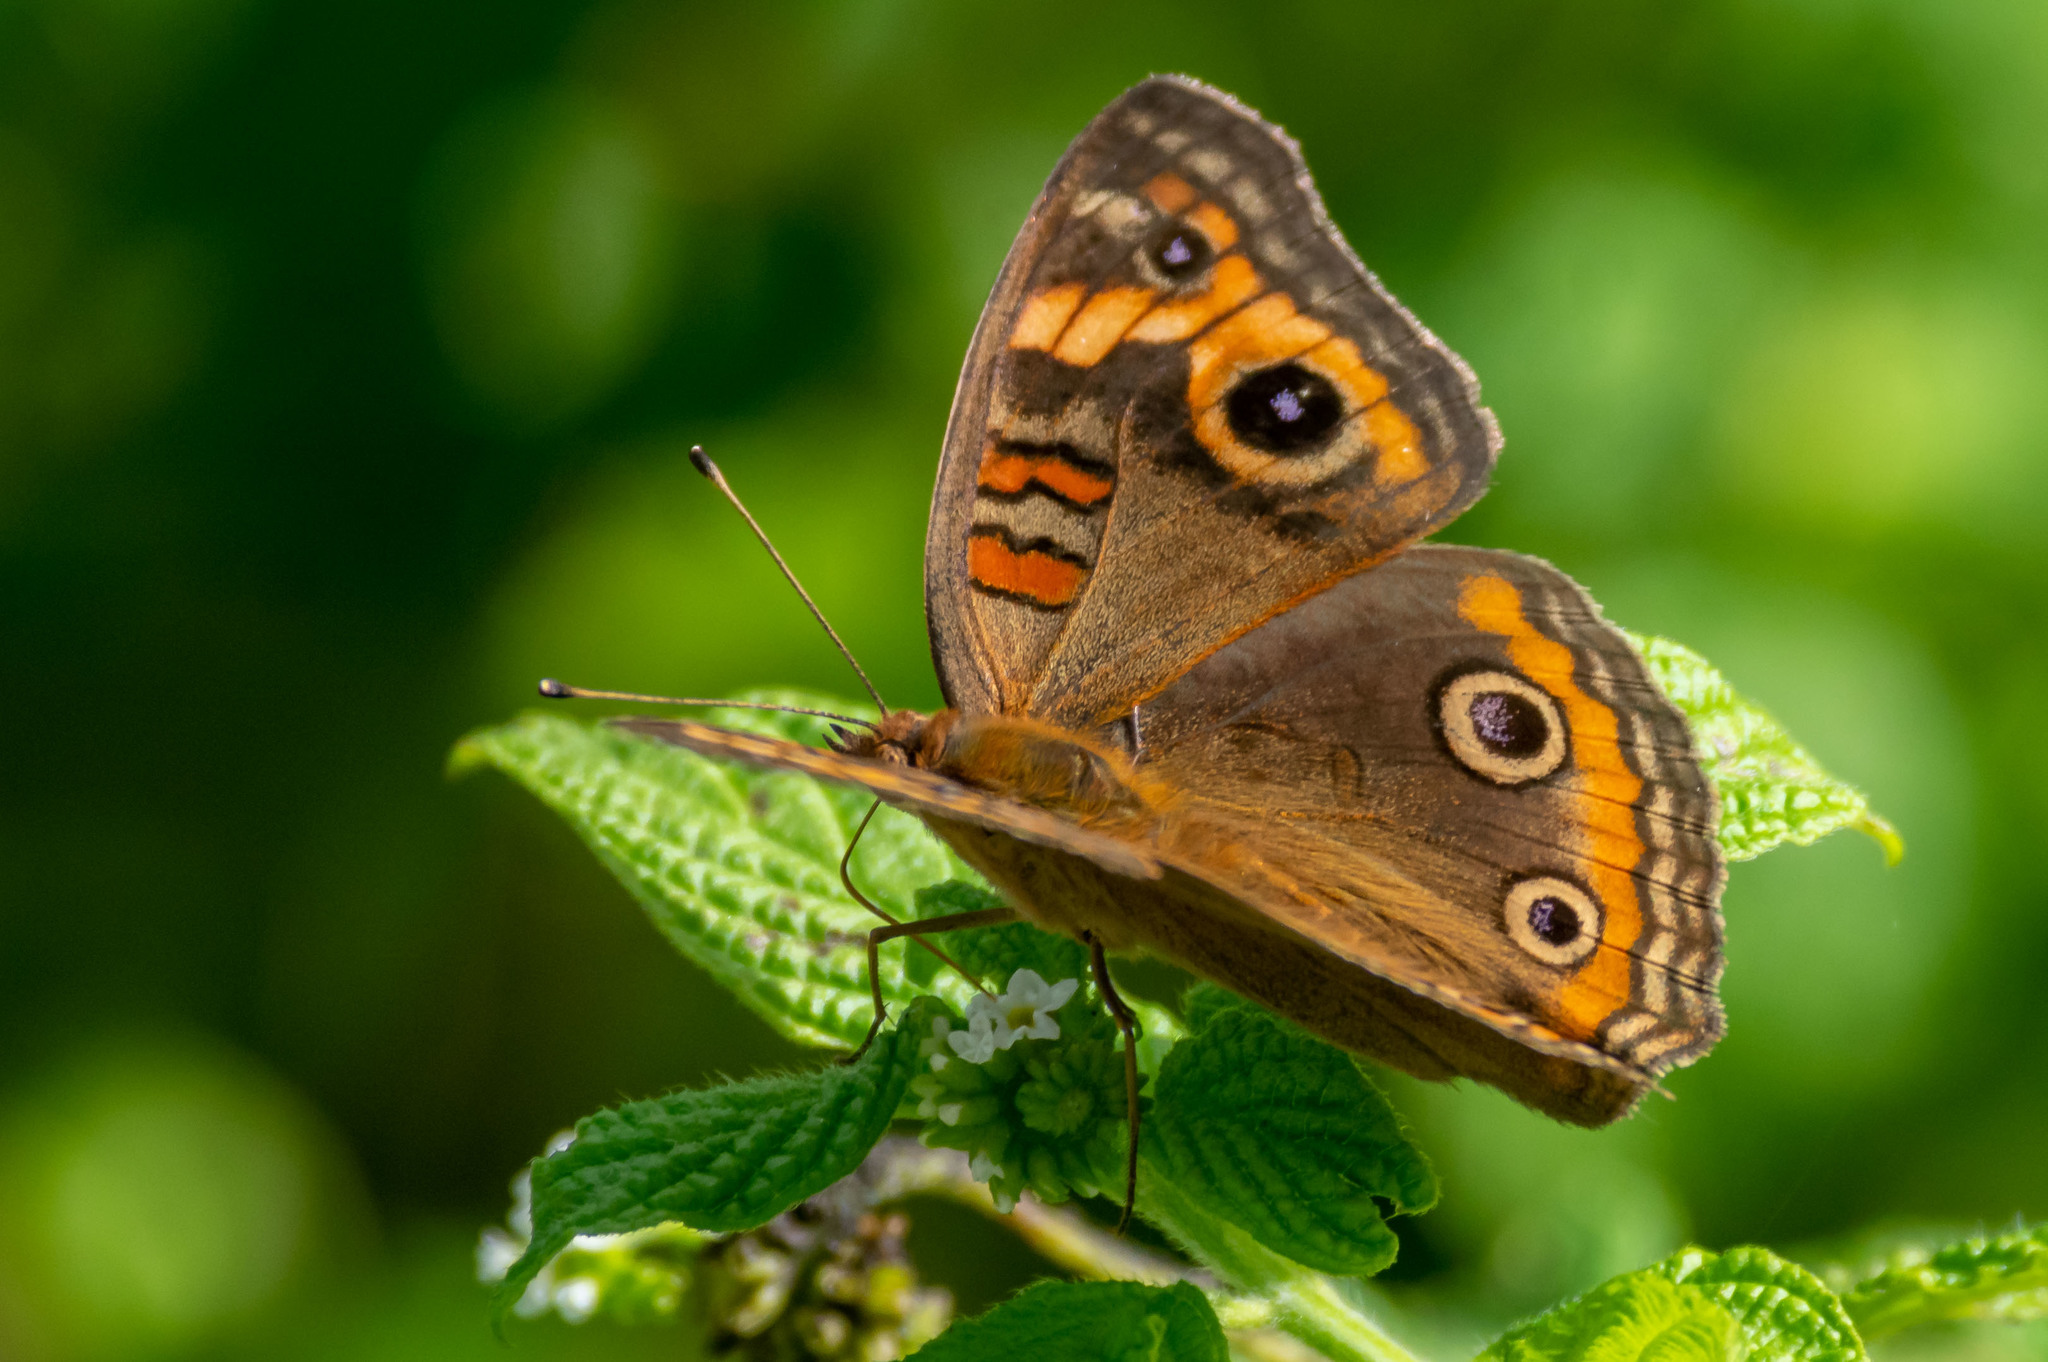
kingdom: Animalia
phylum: Arthropoda
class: Insecta
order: Lepidoptera
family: Nymphalidae
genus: Junonia
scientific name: Junonia neildi
